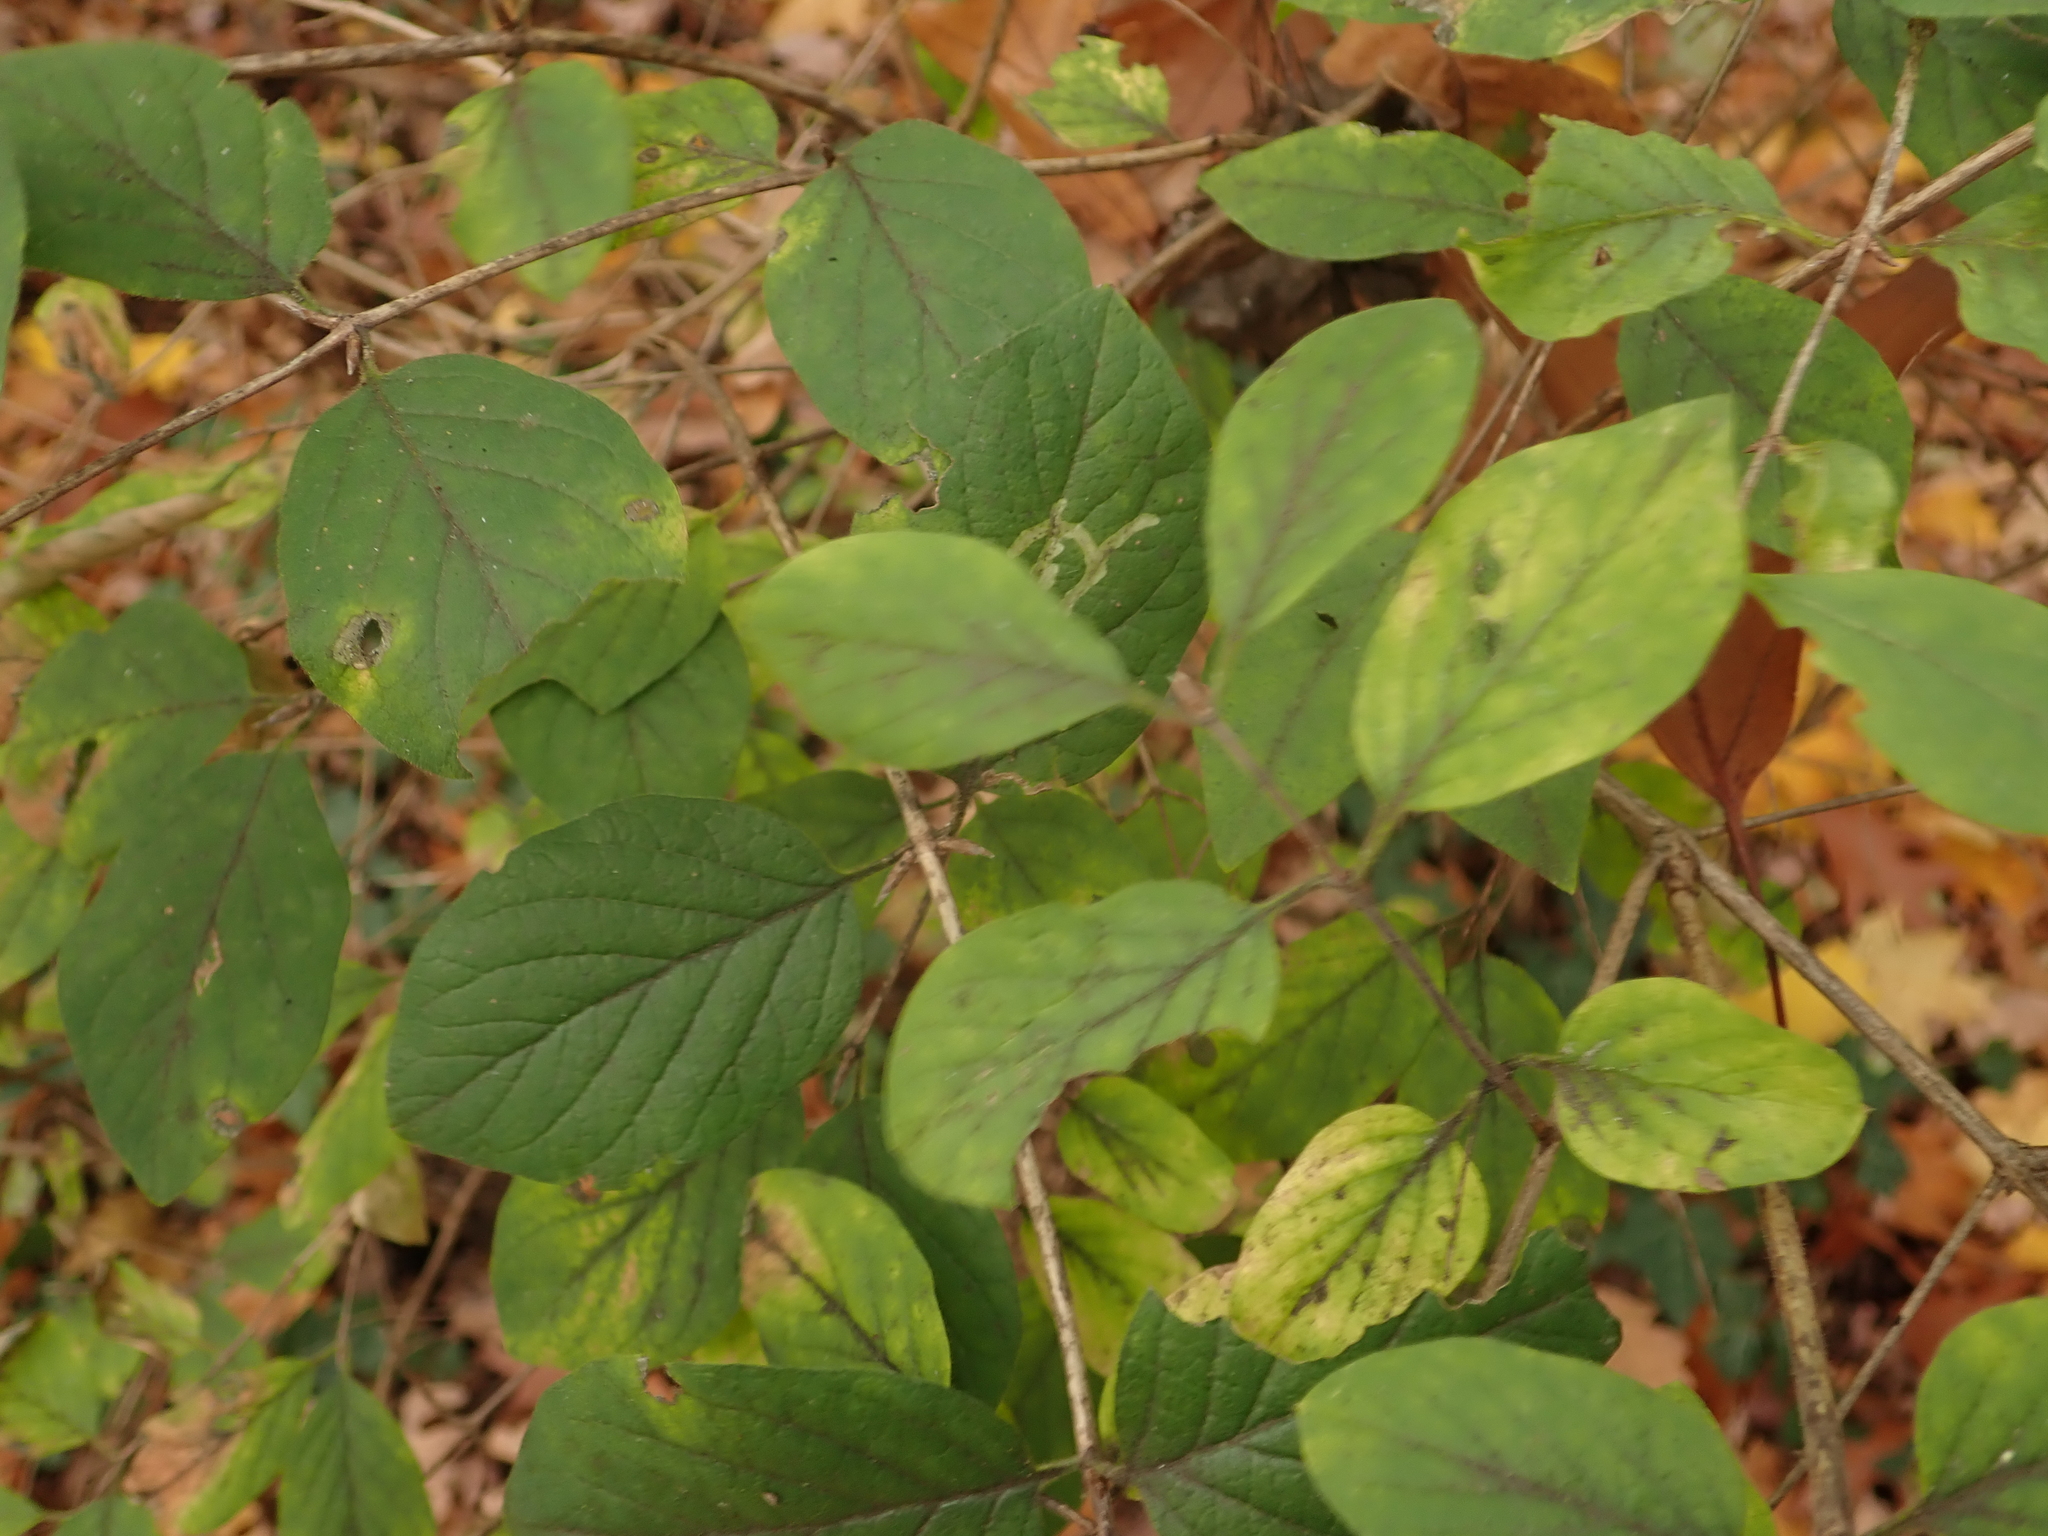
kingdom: Plantae
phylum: Tracheophyta
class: Magnoliopsida
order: Dipsacales
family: Caprifoliaceae
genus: Lonicera
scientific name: Lonicera xylosteum
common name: Fly honeysuckle
